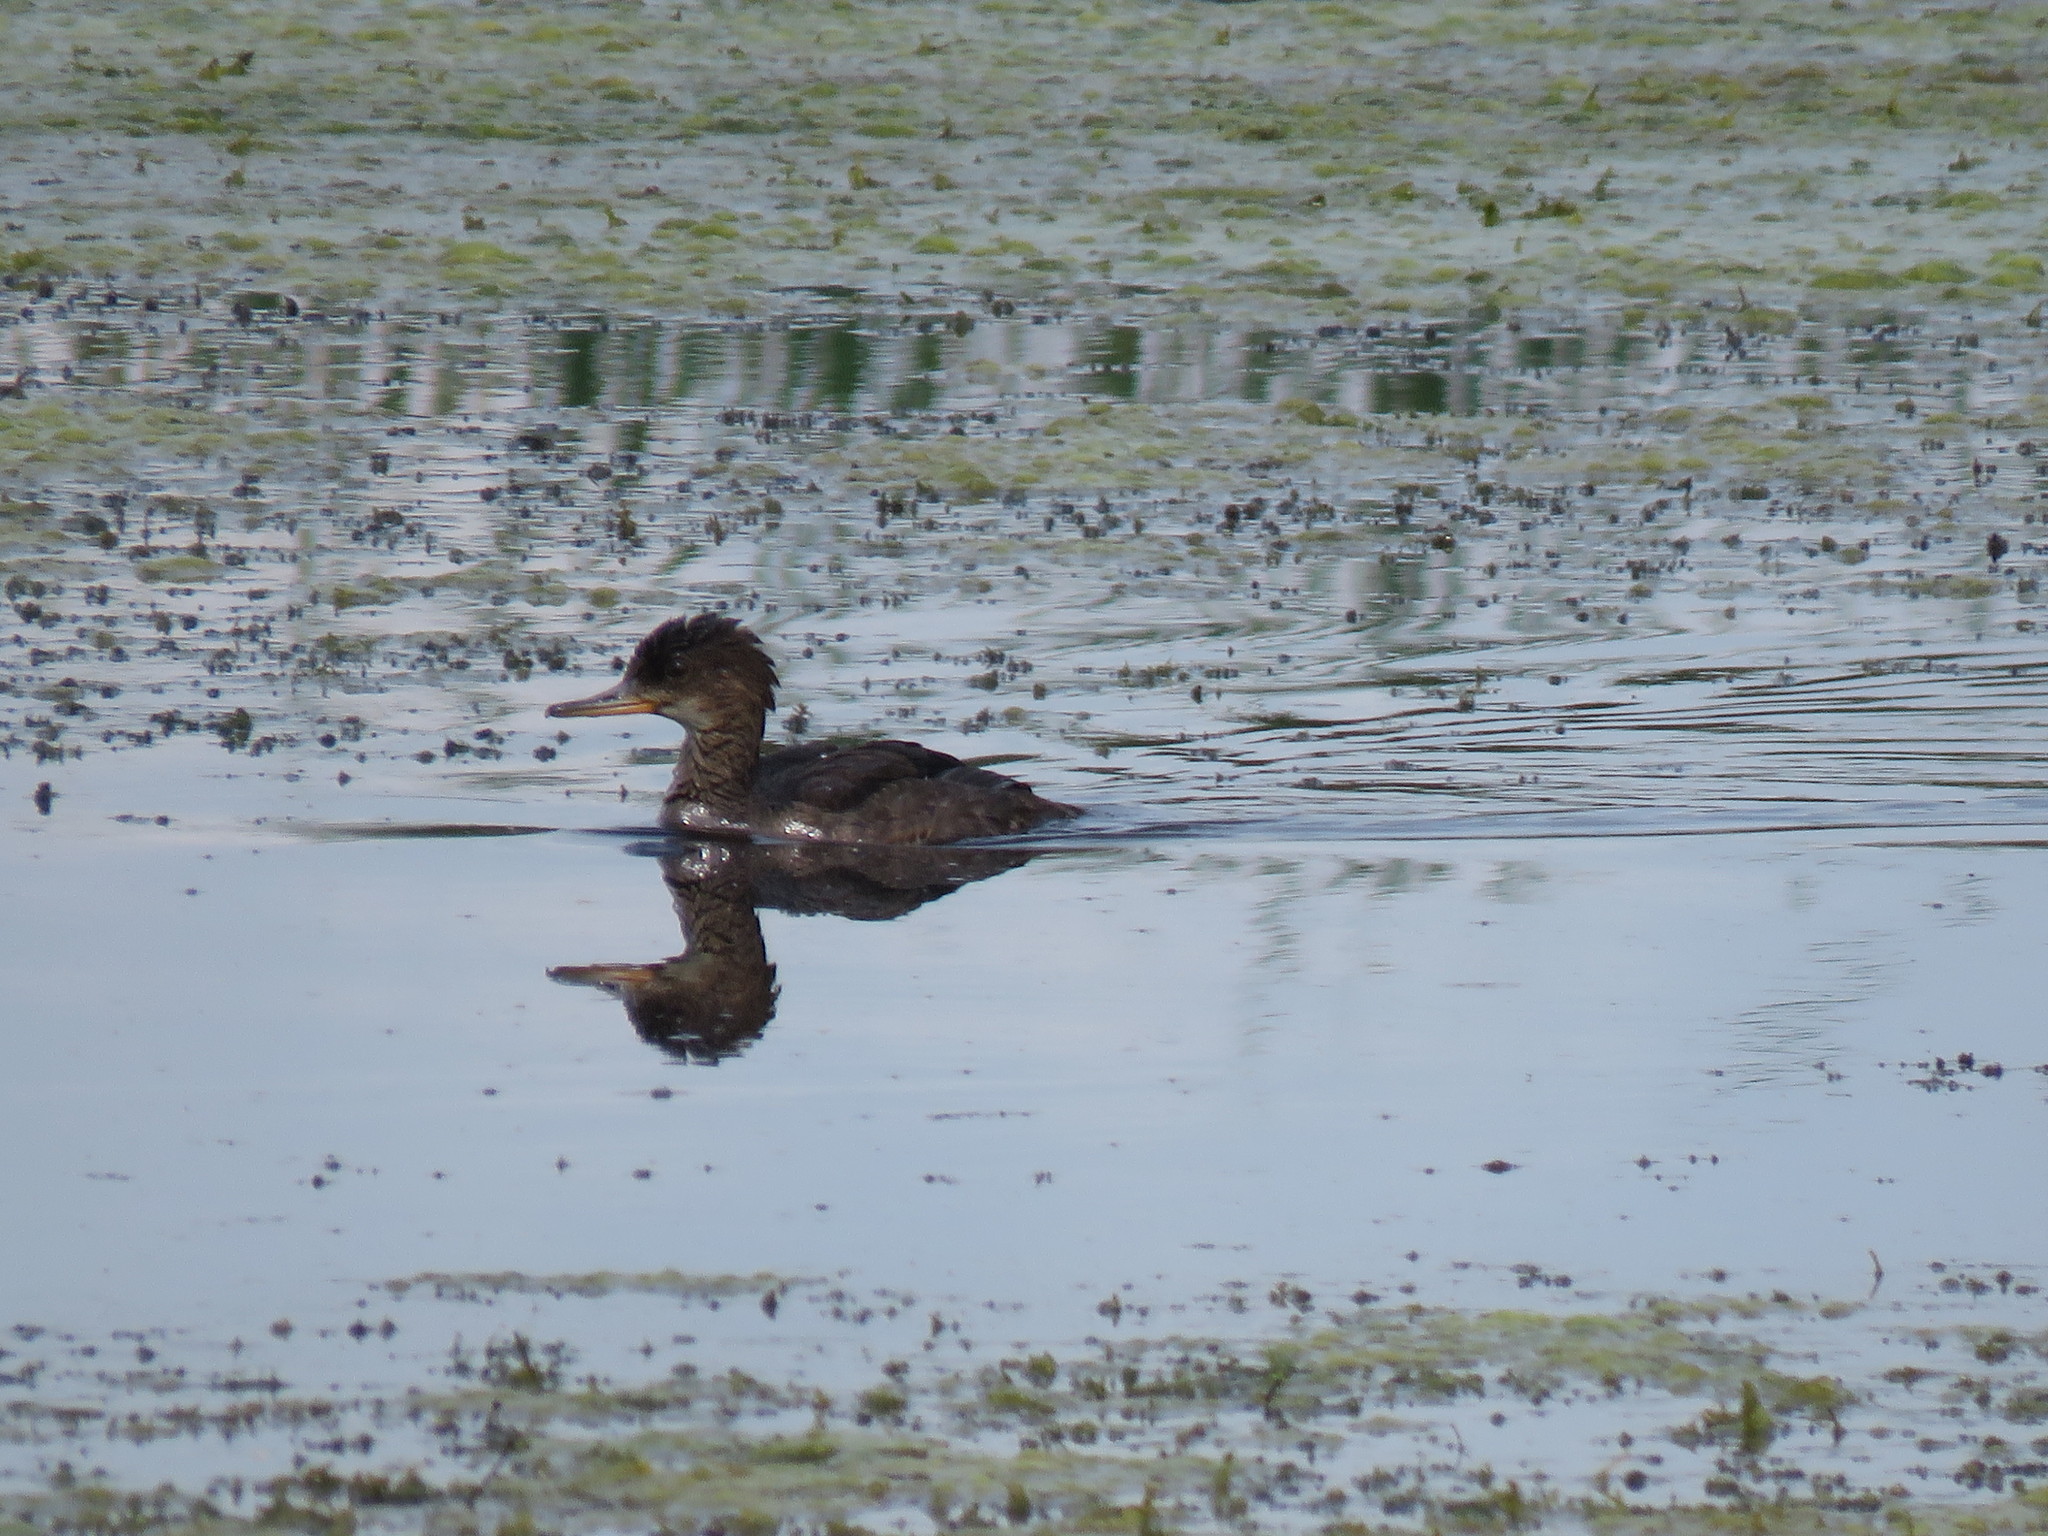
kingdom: Animalia
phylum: Chordata
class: Aves
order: Anseriformes
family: Anatidae
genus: Lophodytes
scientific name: Lophodytes cucullatus
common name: Hooded merganser
